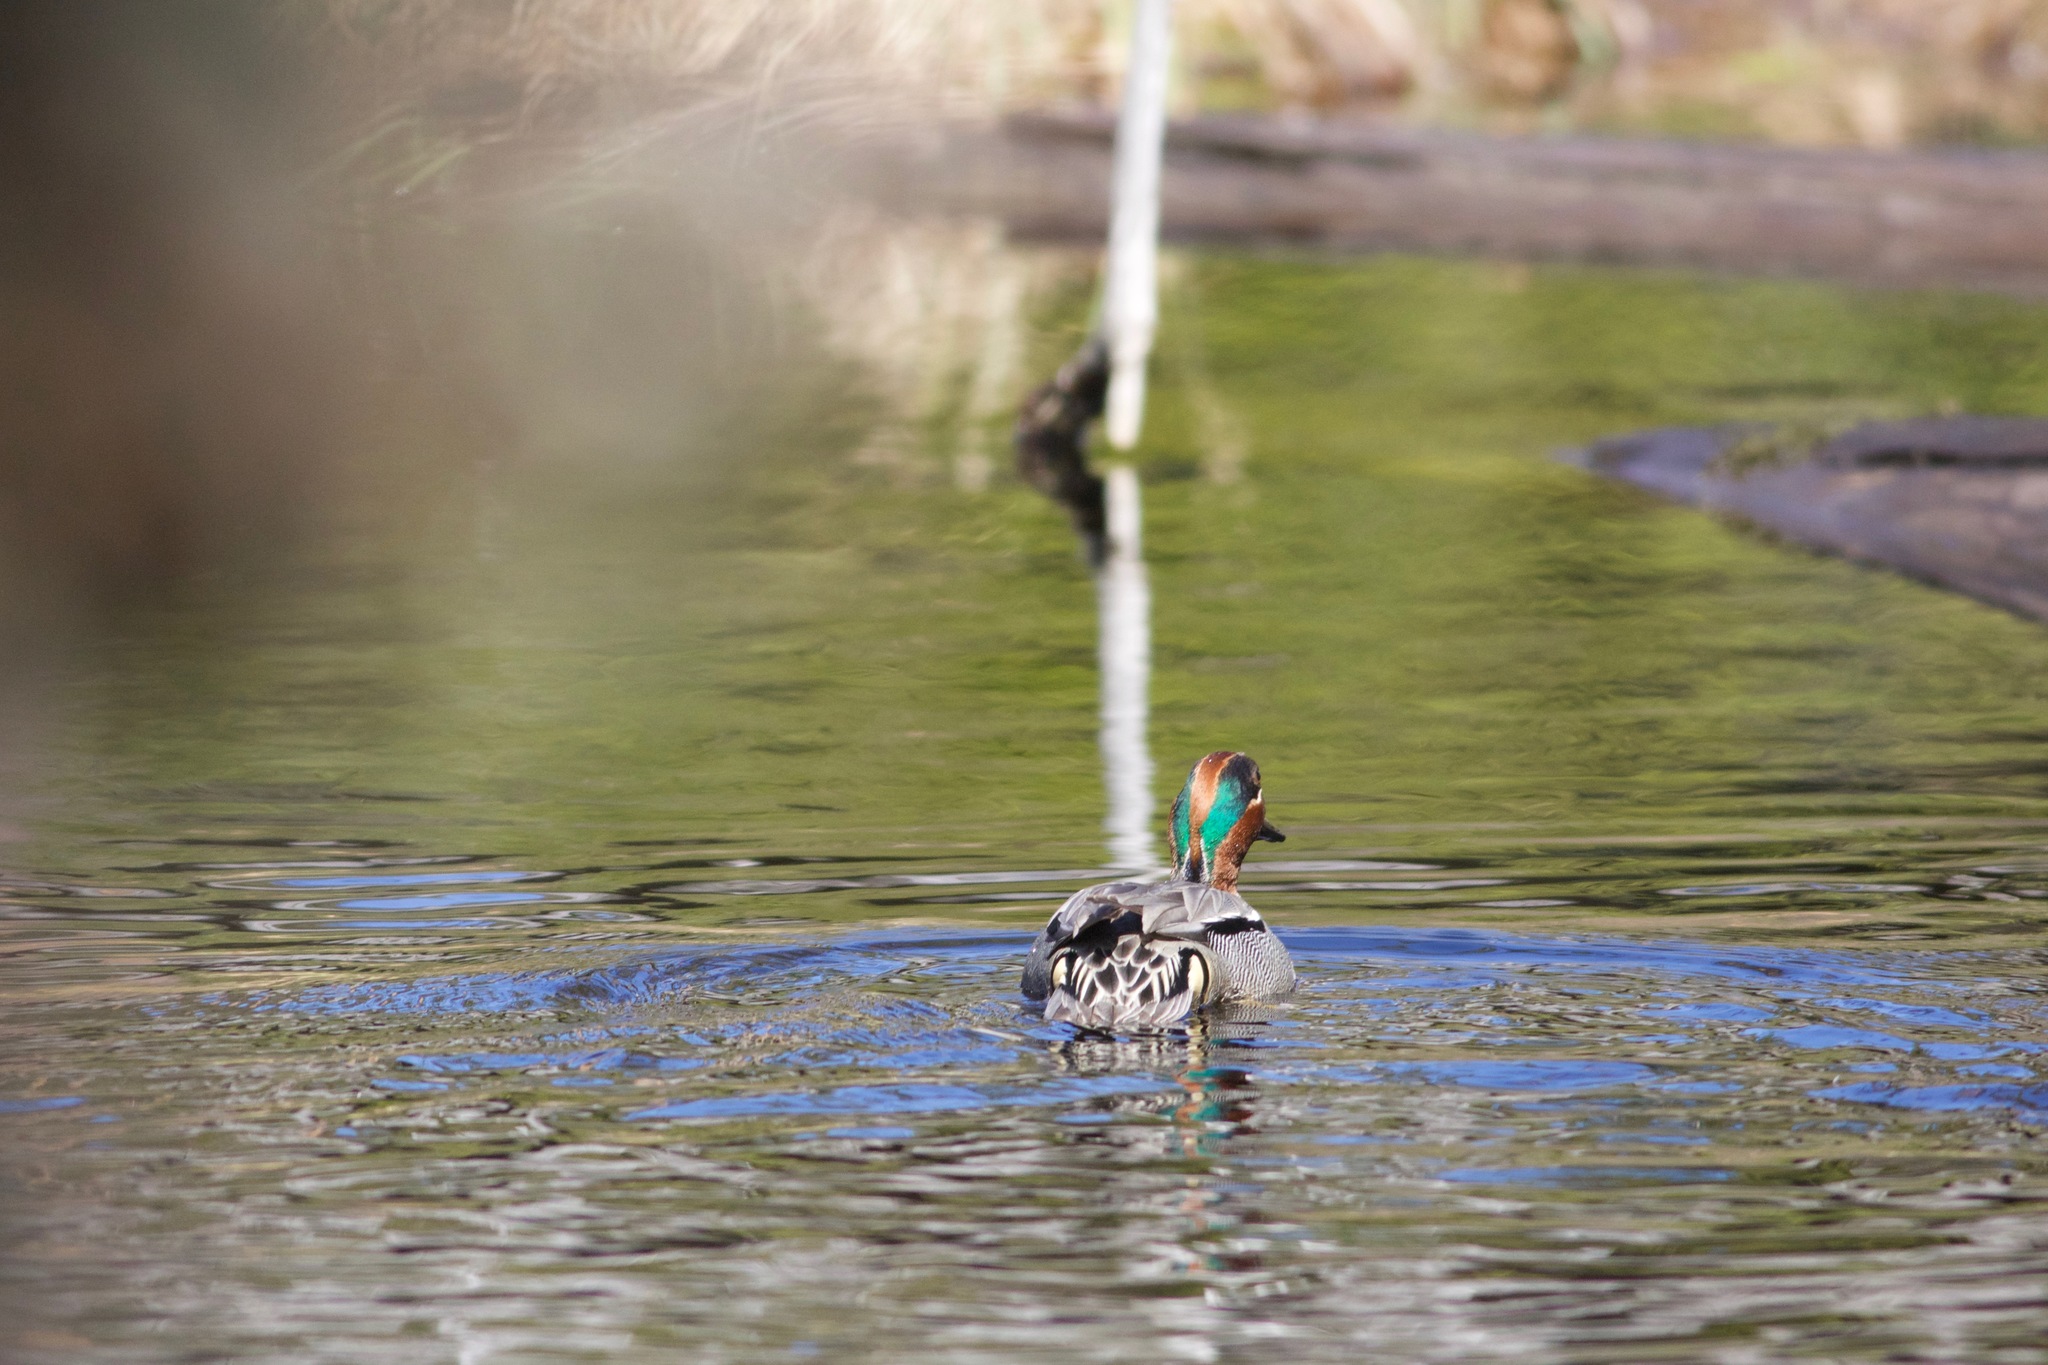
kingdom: Animalia
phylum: Chordata
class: Aves
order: Anseriformes
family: Anatidae
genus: Anas
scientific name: Anas crecca
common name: Eurasian teal
